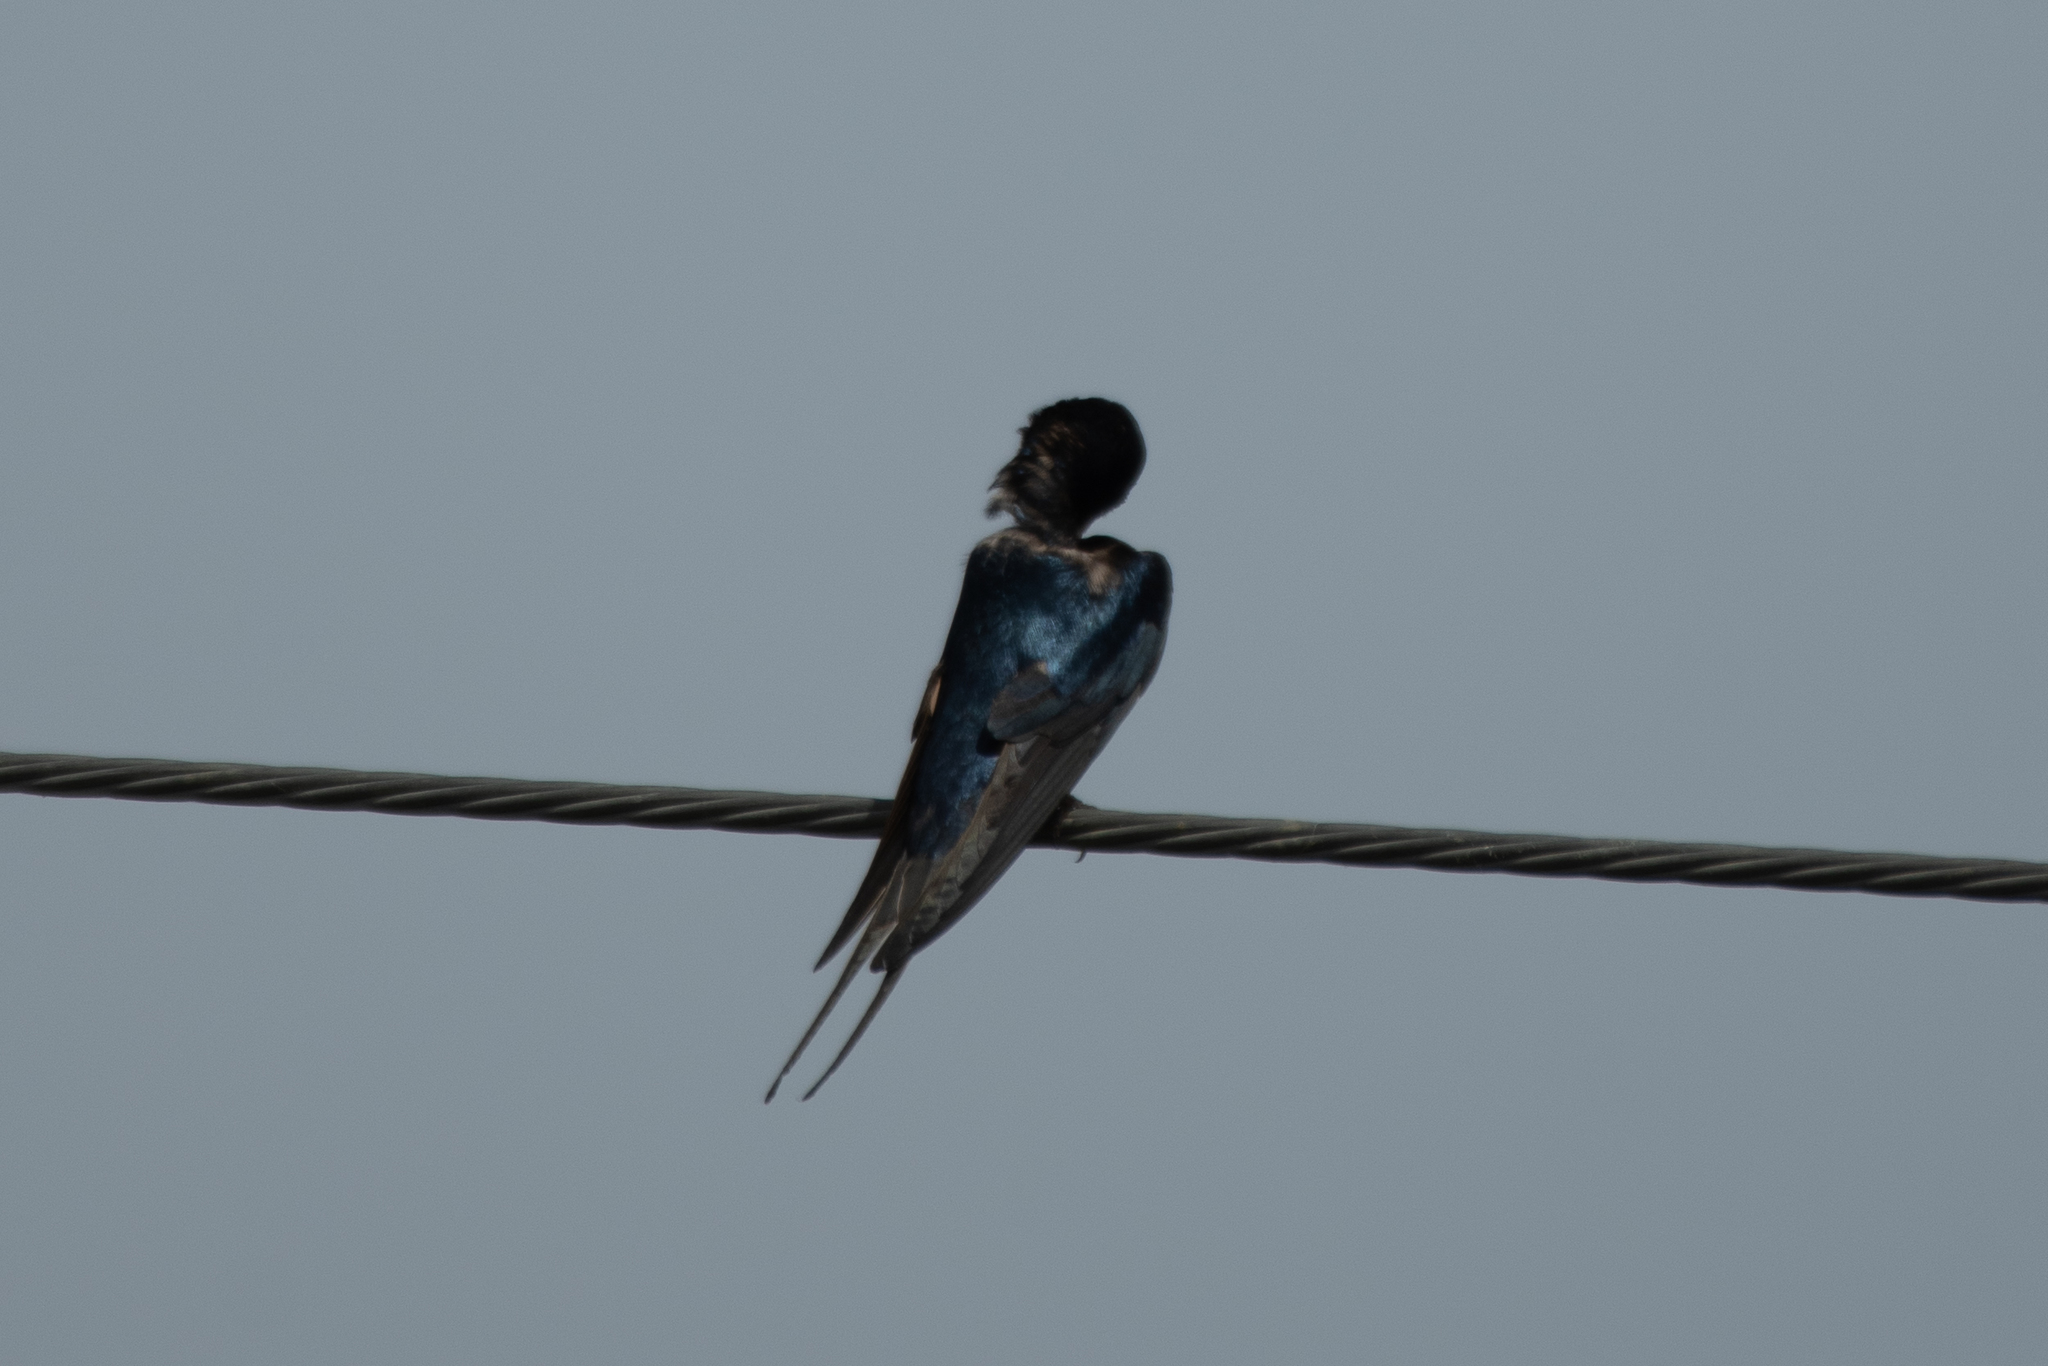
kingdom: Animalia
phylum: Chordata
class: Aves
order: Passeriformes
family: Hirundinidae
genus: Hirundo
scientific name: Hirundo rustica
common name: Barn swallow
